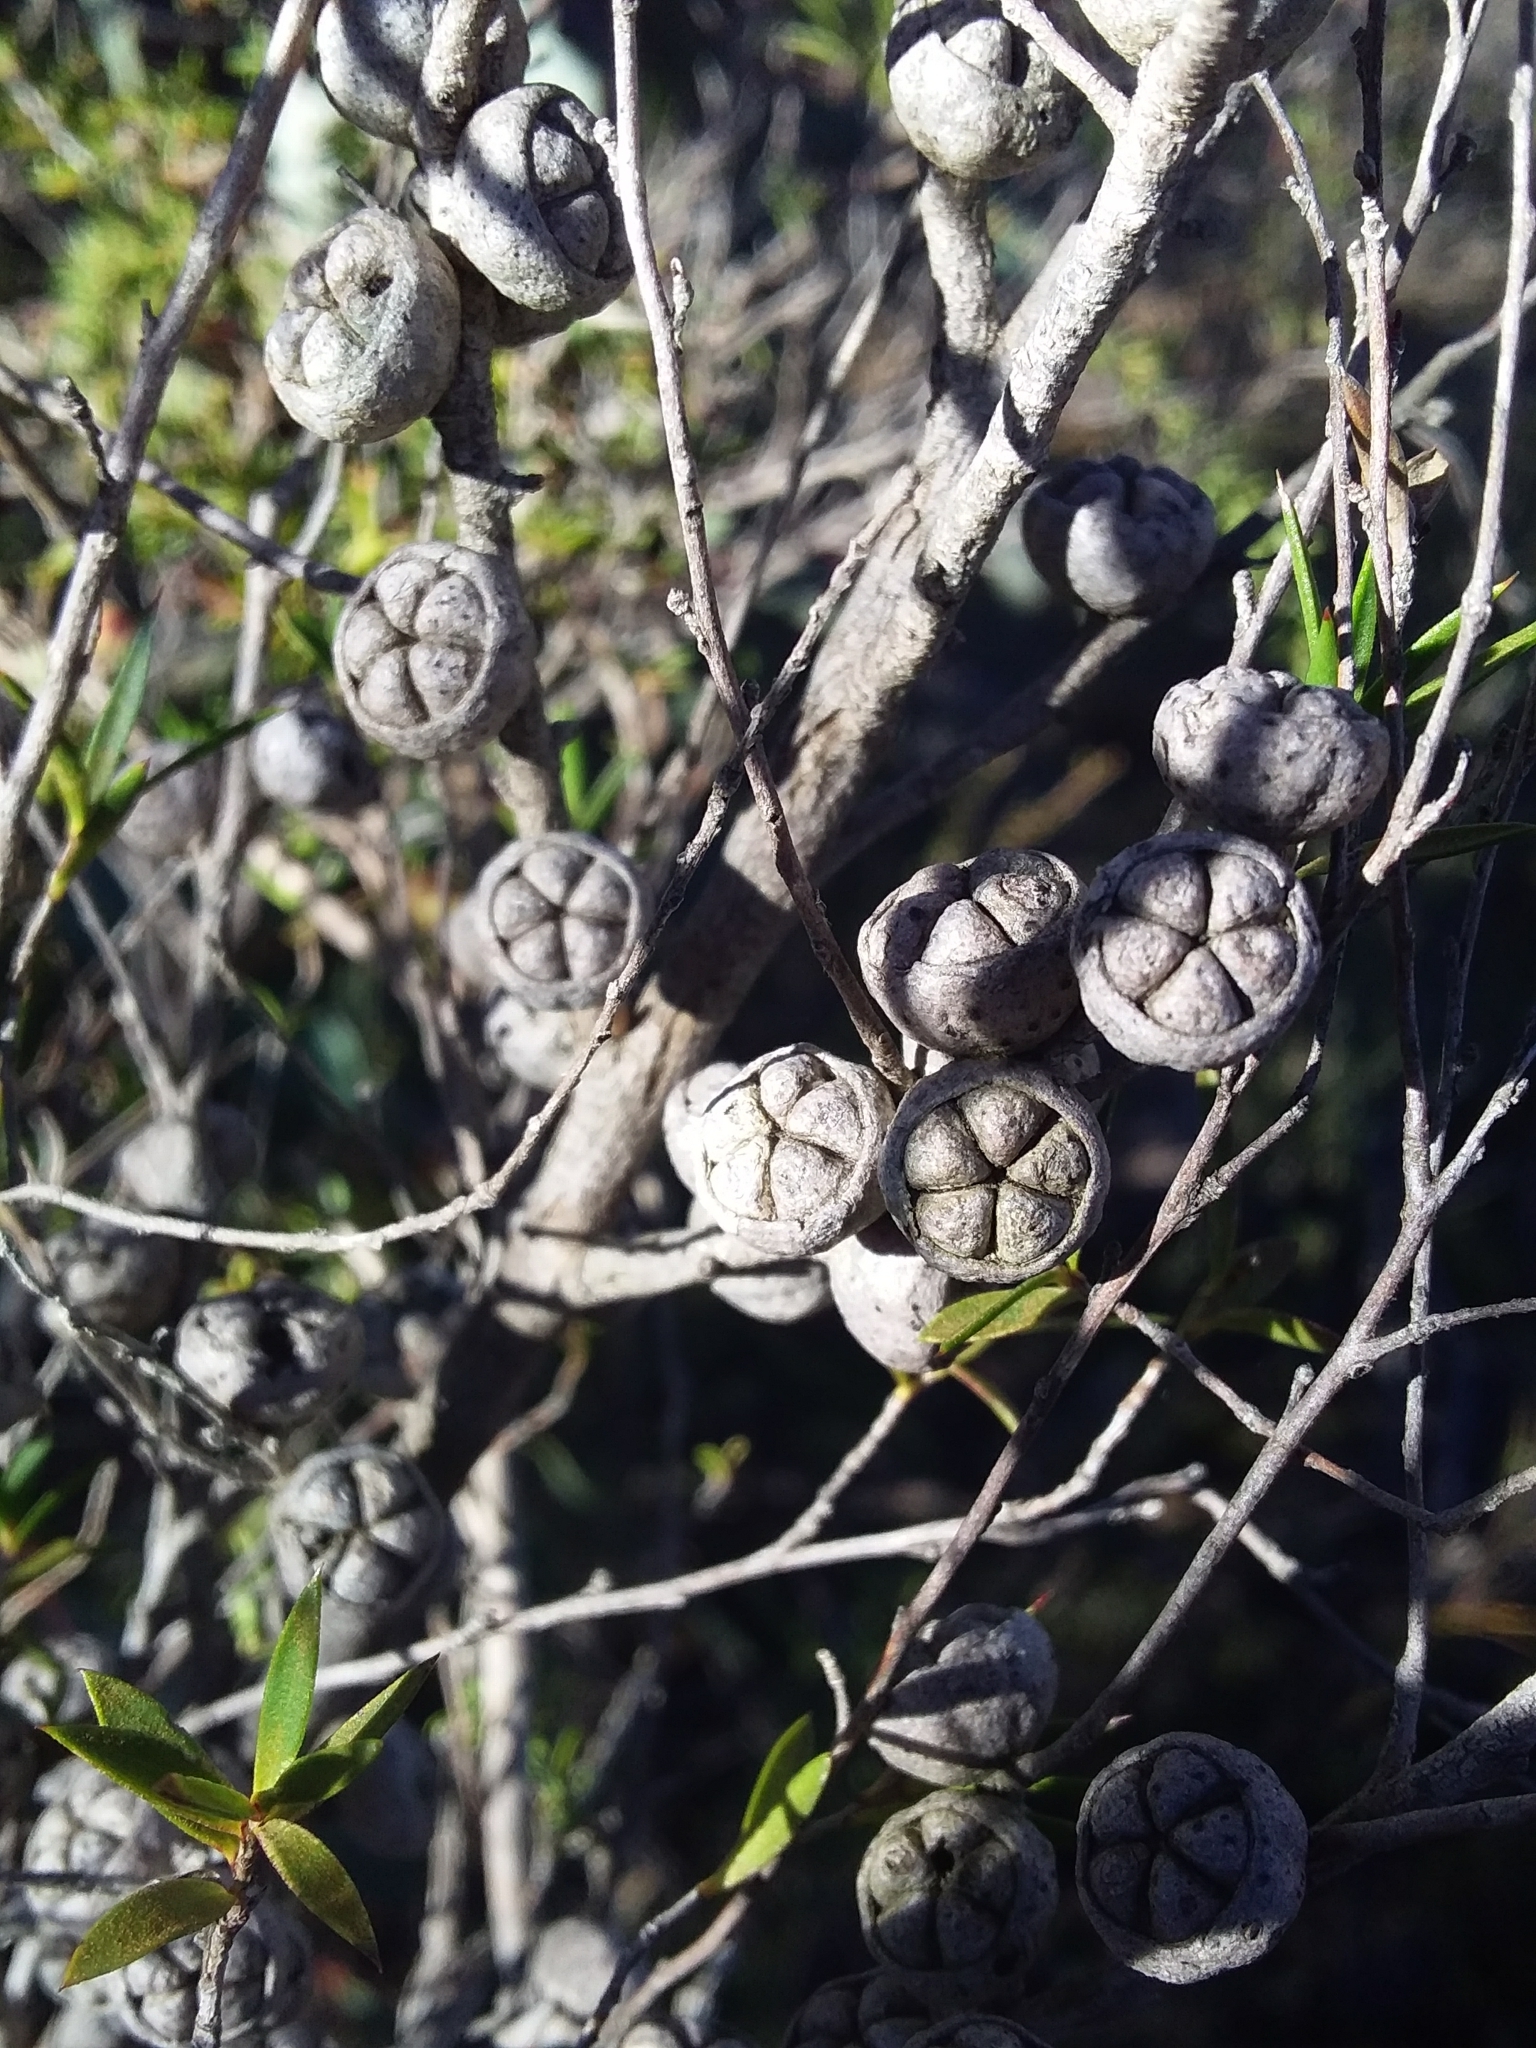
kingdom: Plantae
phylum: Tracheophyta
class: Magnoliopsida
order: Myrtales
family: Myrtaceae
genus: Leptospermum
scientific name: Leptospermum continentale
